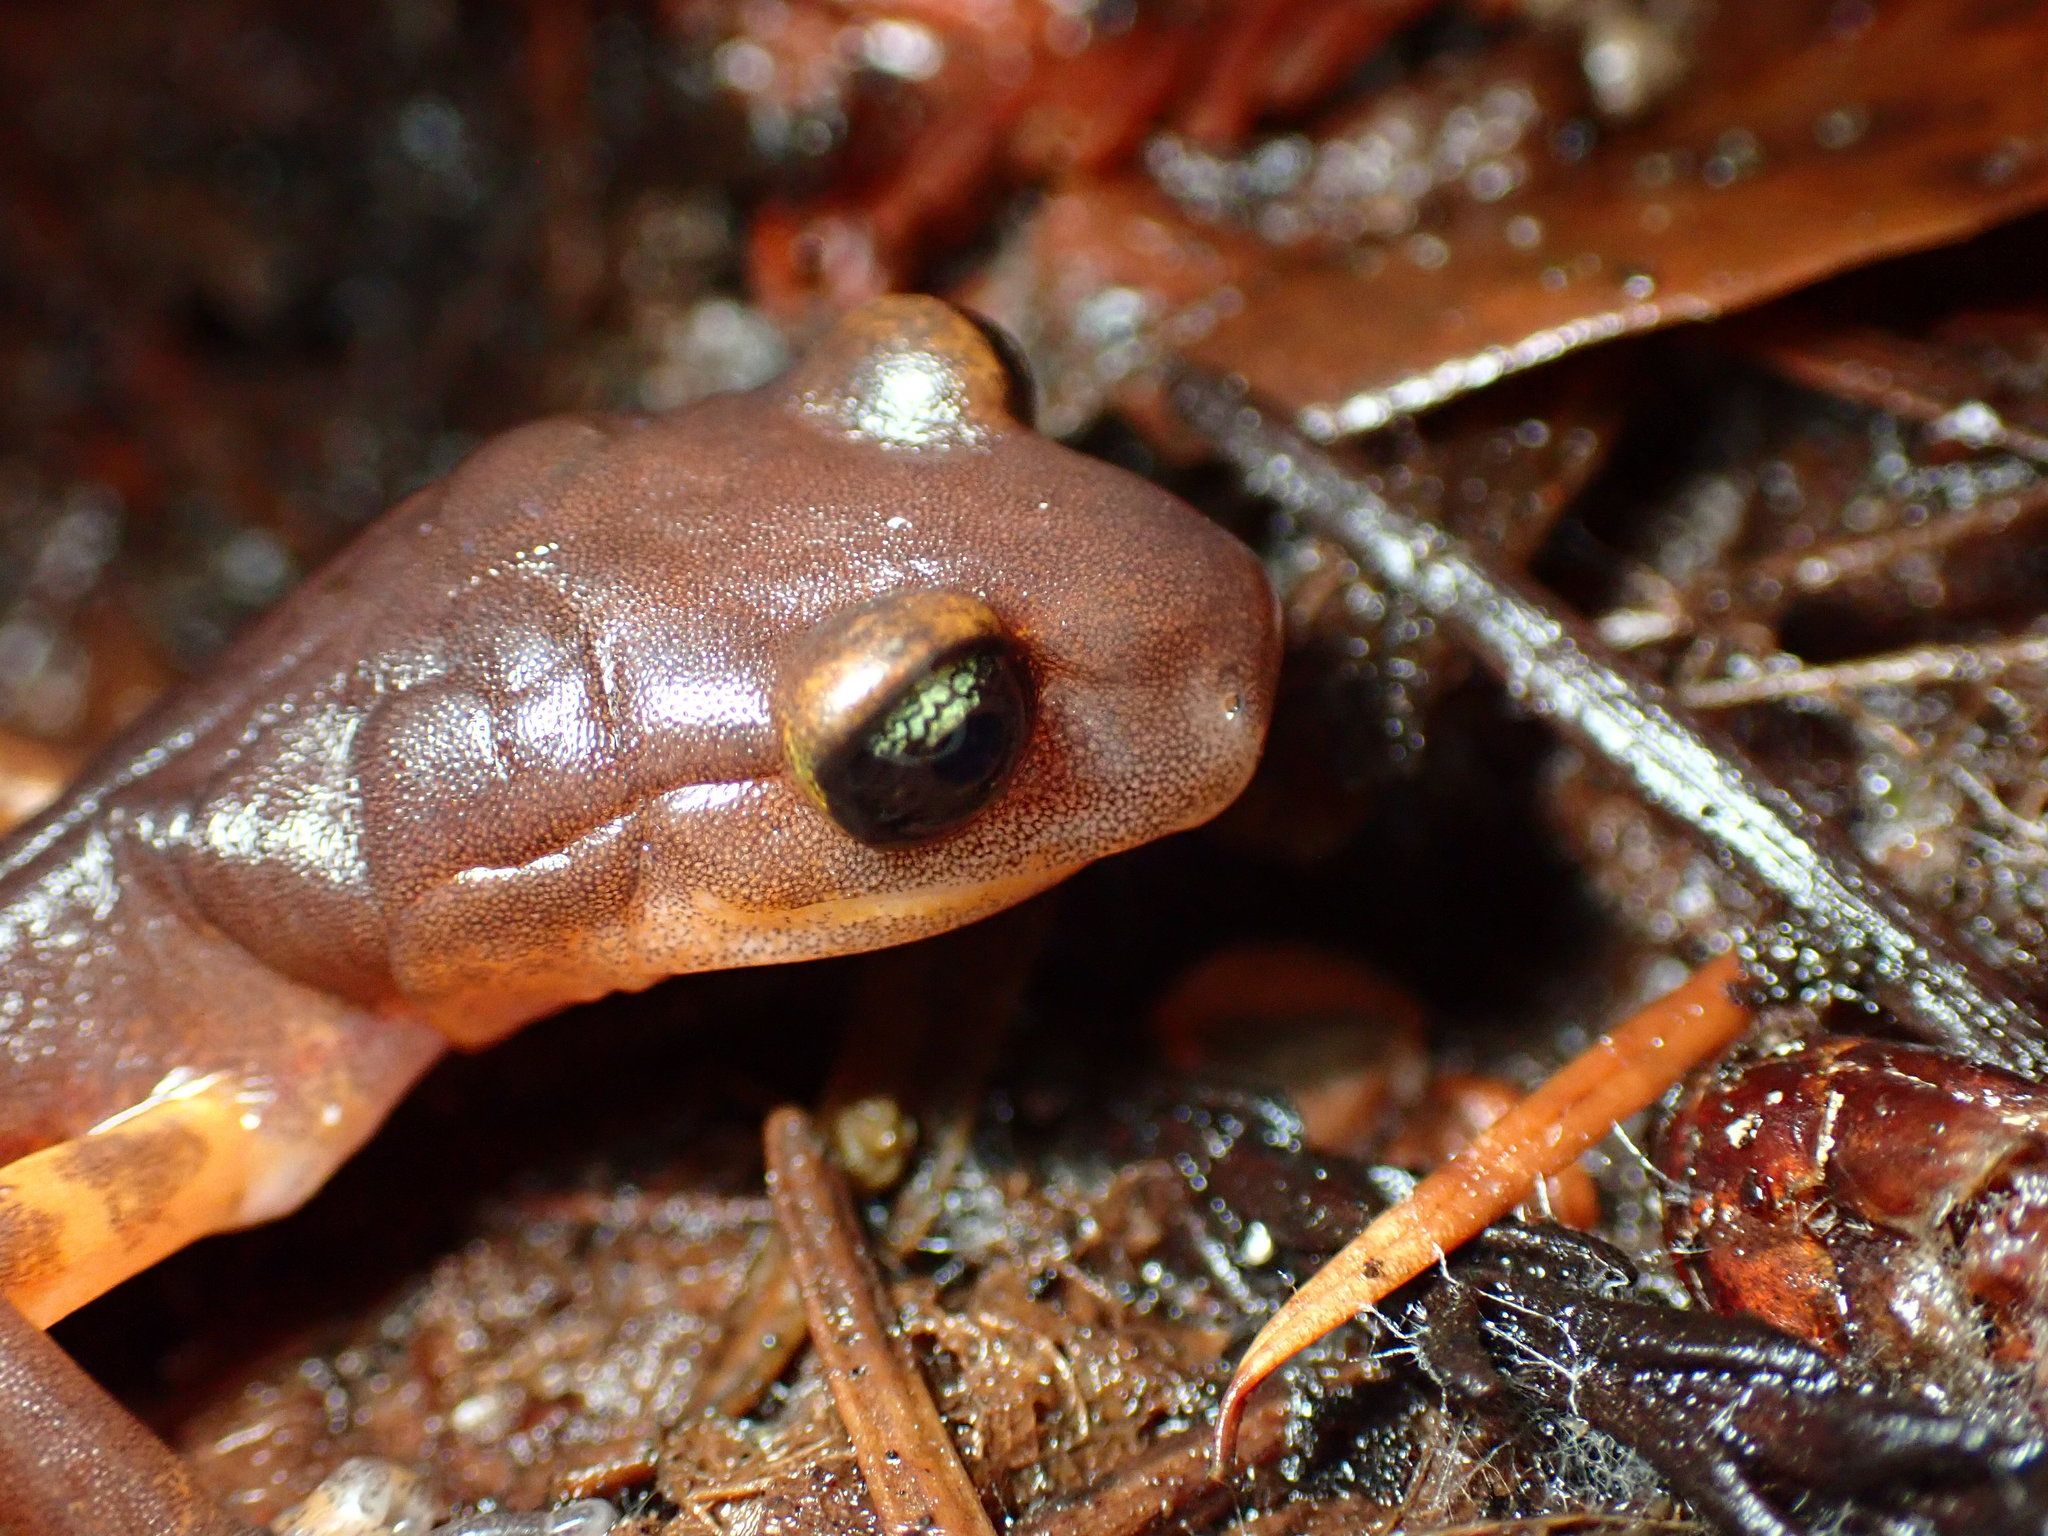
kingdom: Animalia
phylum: Chordata
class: Amphibia
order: Caudata
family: Plethodontidae
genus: Ensatina
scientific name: Ensatina eschscholtzii
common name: Ensatina
